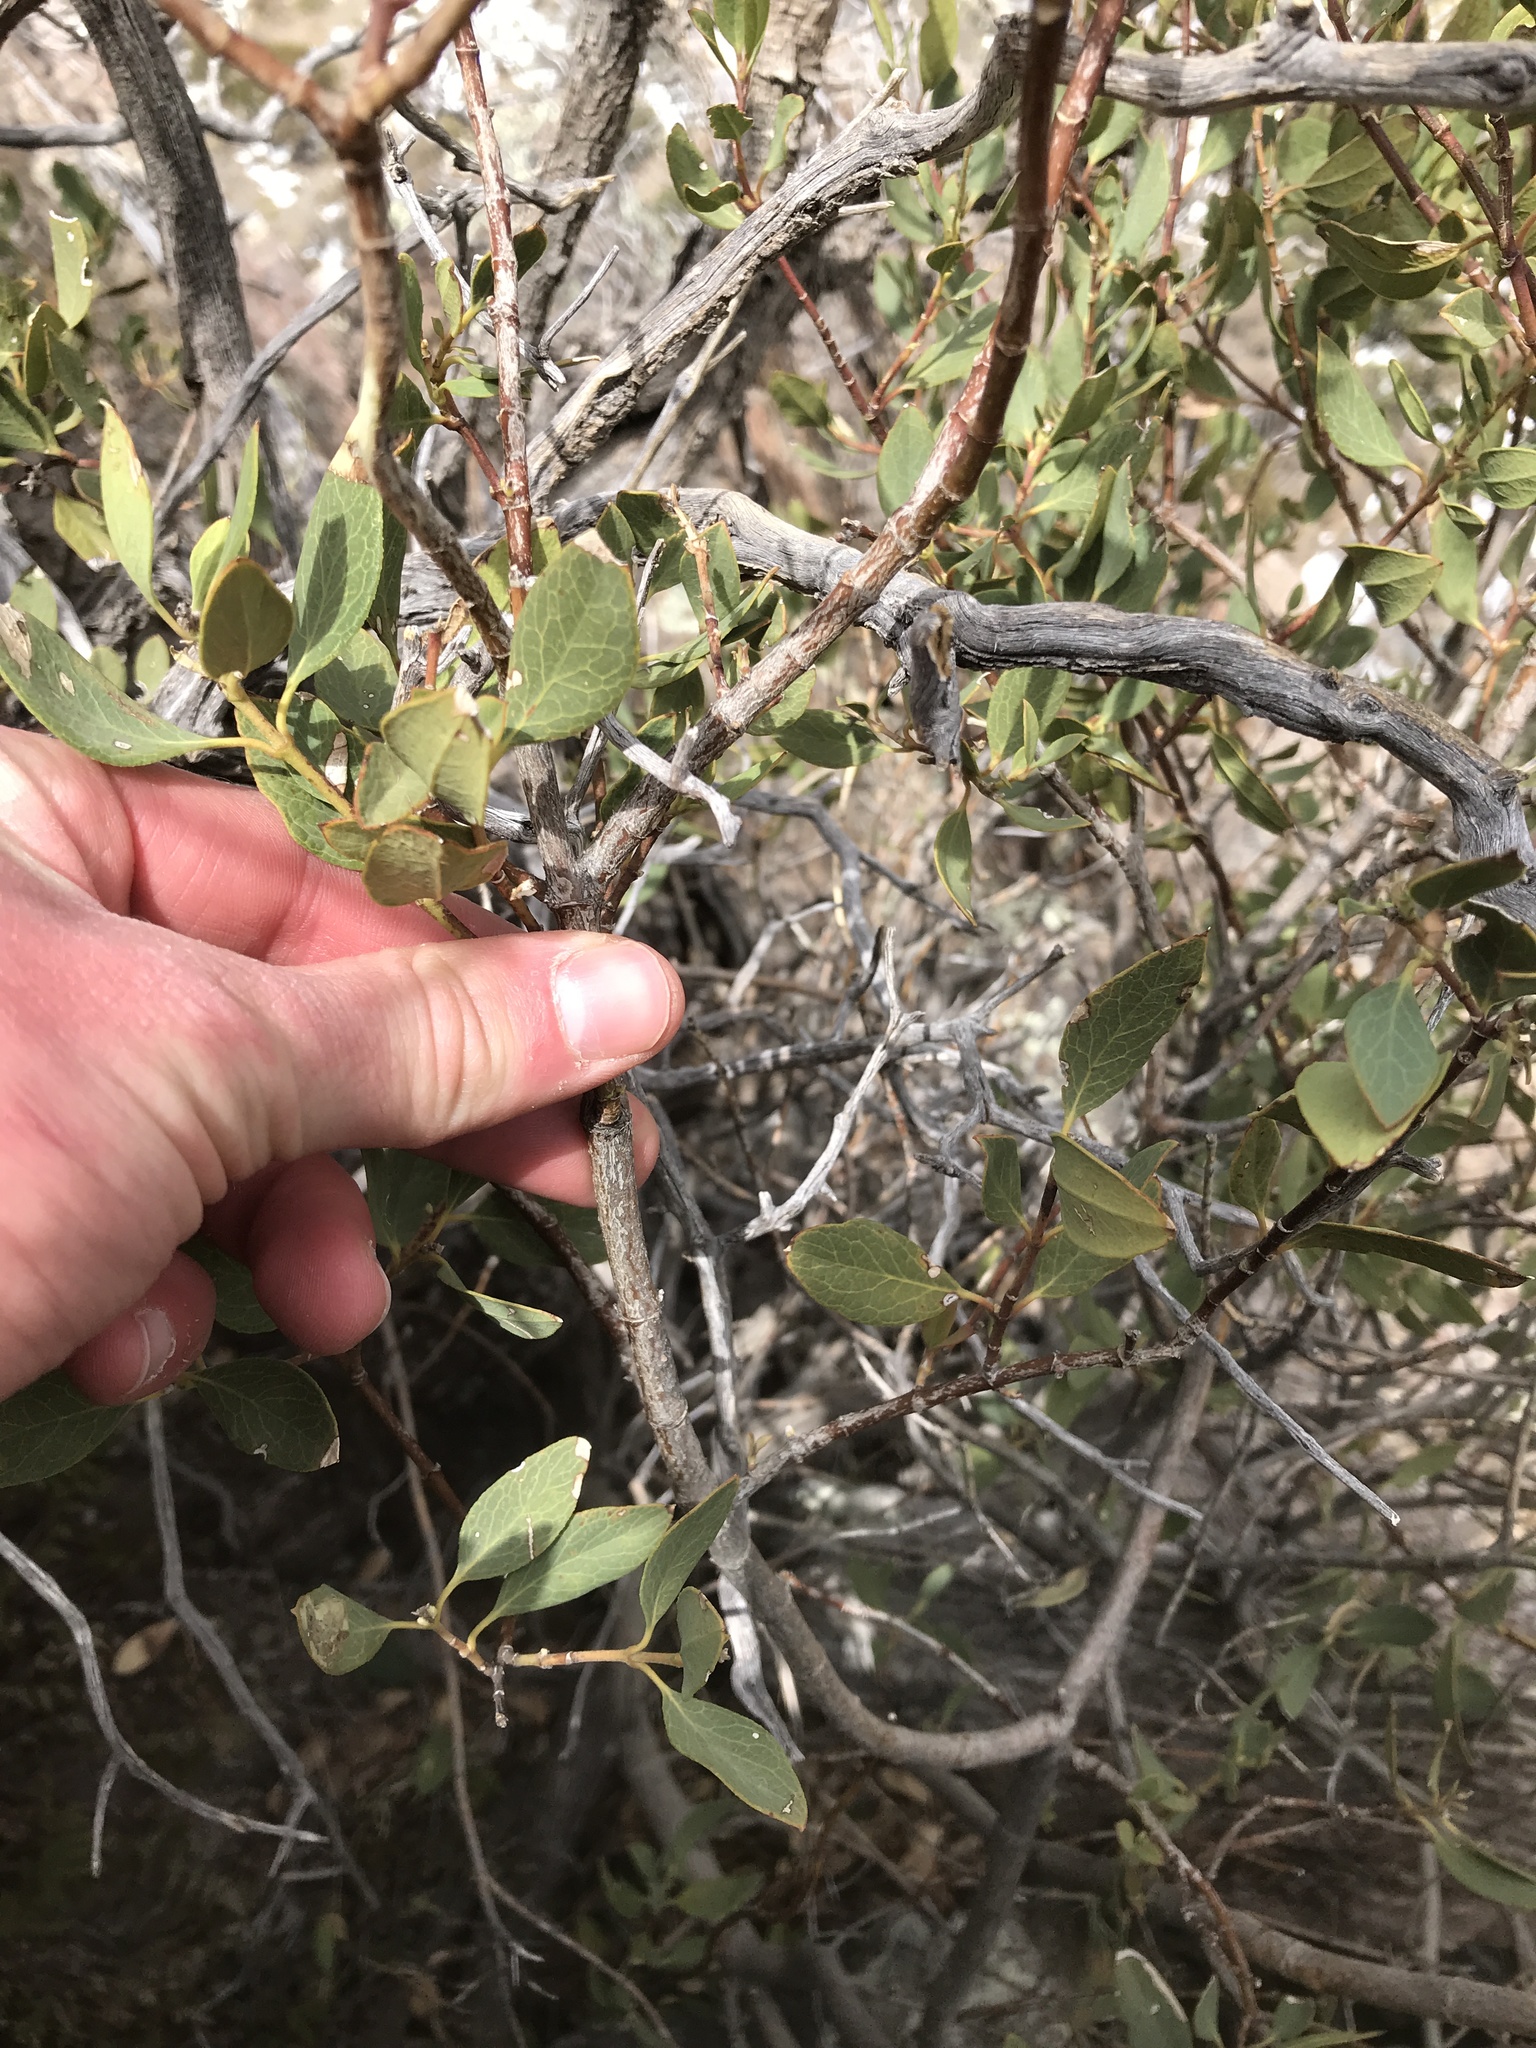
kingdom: Plantae
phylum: Tracheophyta
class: Magnoliopsida
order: Garryales
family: Garryaceae
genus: Garrya
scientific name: Garrya wrightii
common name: Wright's silktassel
